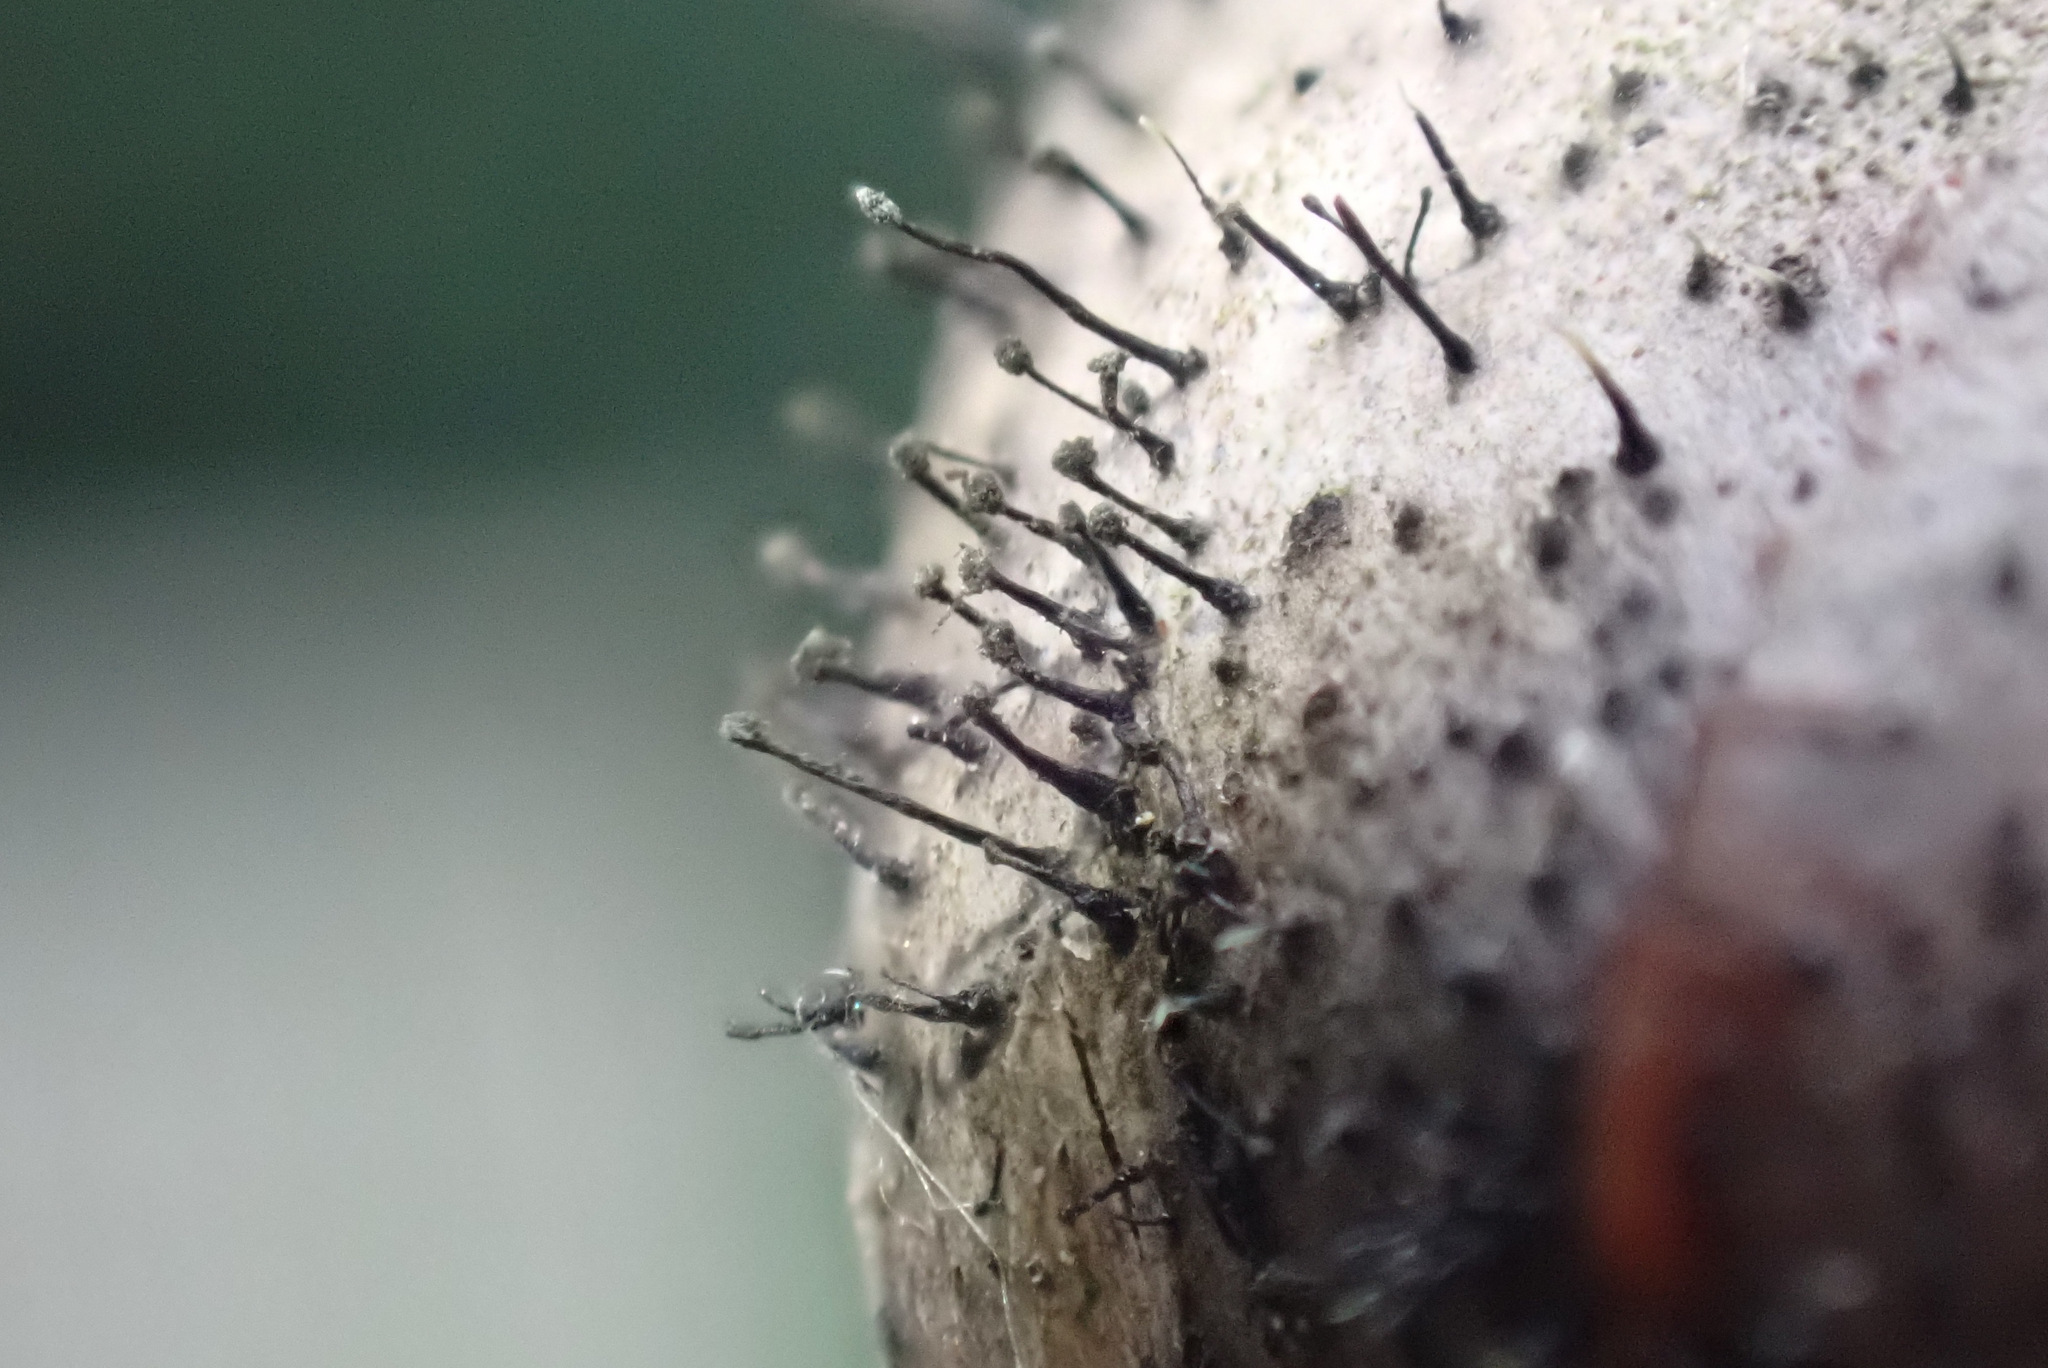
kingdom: Fungi
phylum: Ascomycota
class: Dothideomycetes
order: Pleosporales
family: Melanommataceae
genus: Seifertia
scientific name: Seifertia azaleae
